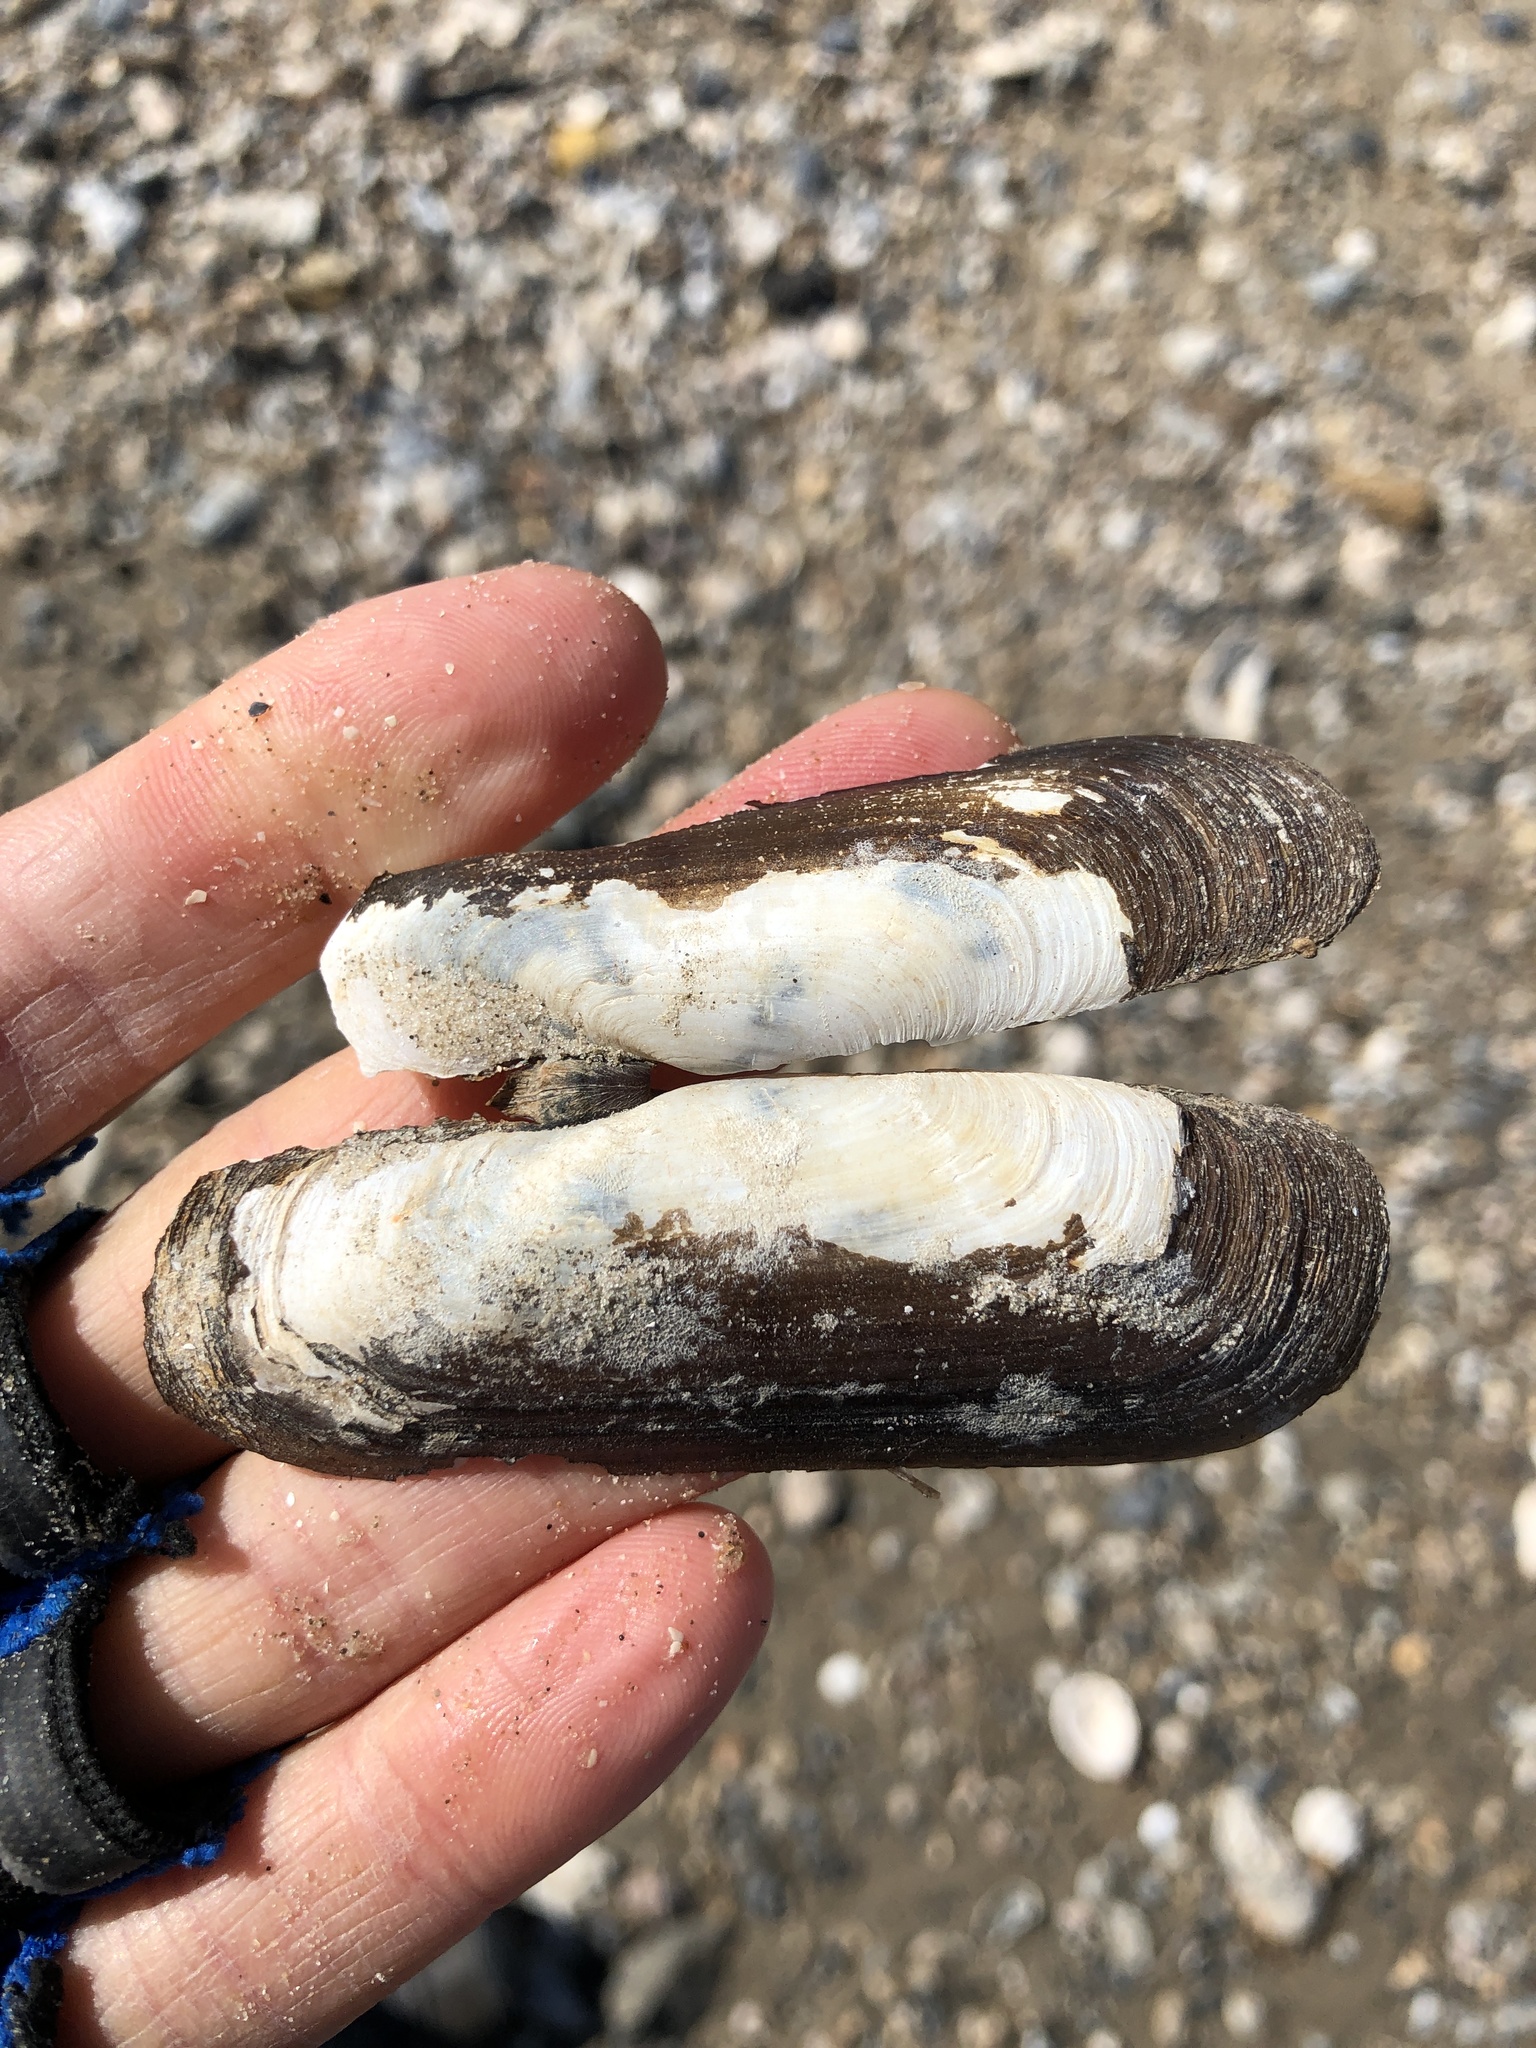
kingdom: Animalia
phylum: Mollusca
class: Bivalvia
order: Cardiida
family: Solecurtidae
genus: Tagelus
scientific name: Tagelus plebeius
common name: Stout tagelus
